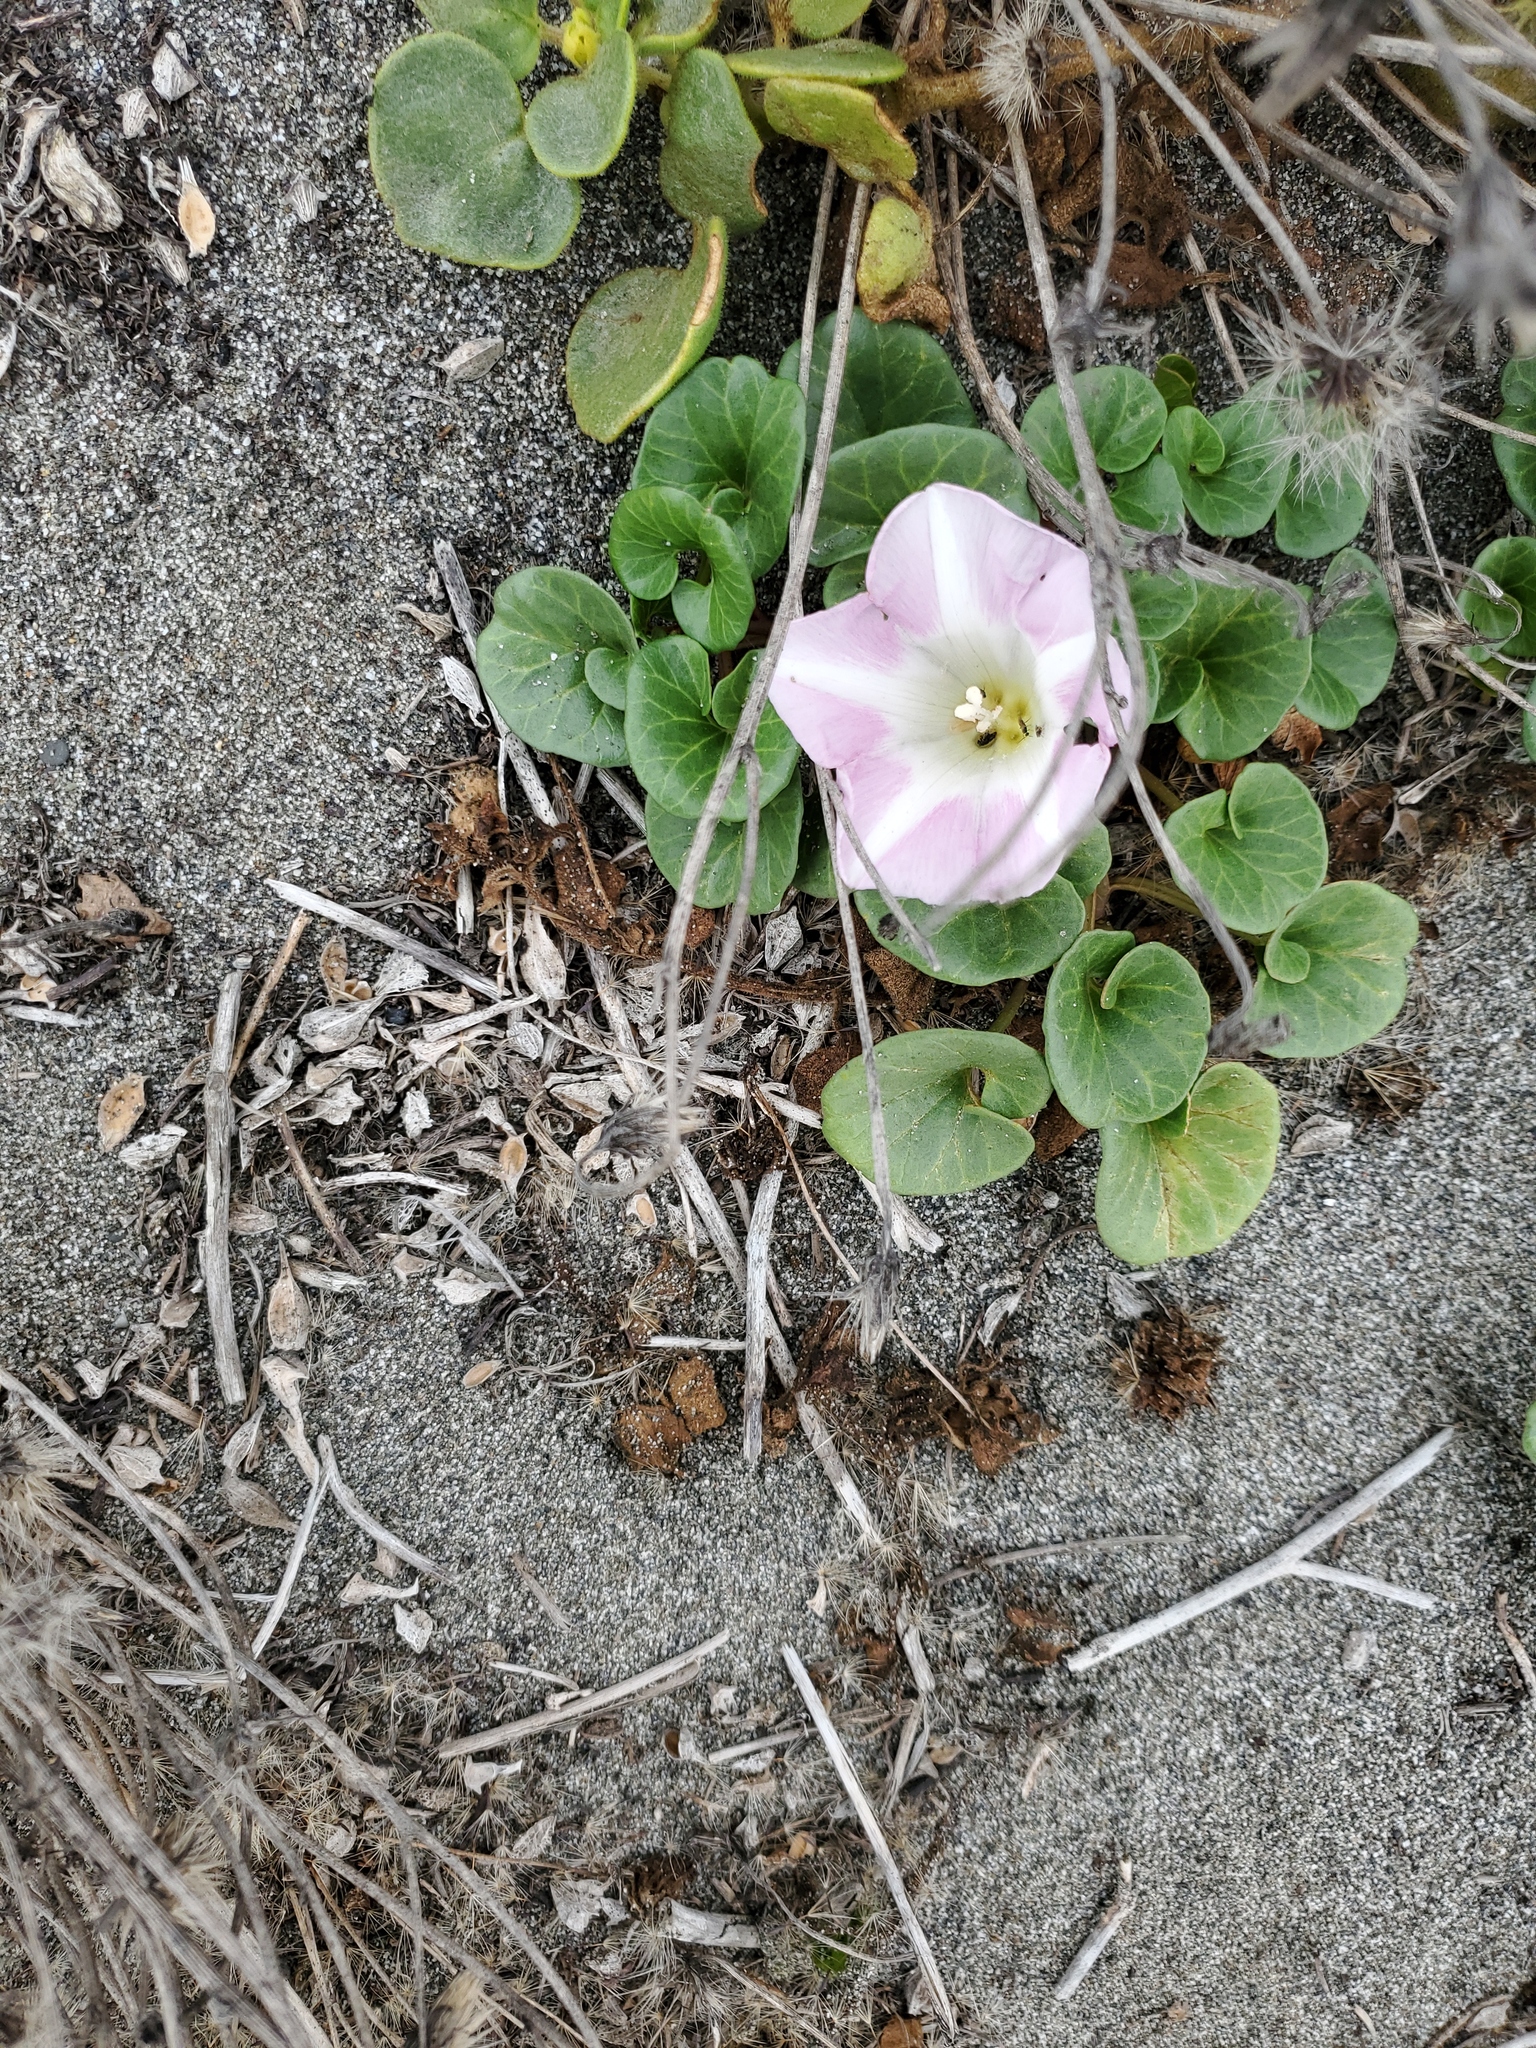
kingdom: Plantae
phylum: Tracheophyta
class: Magnoliopsida
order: Solanales
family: Convolvulaceae
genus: Calystegia
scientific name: Calystegia soldanella
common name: Sea bindweed
